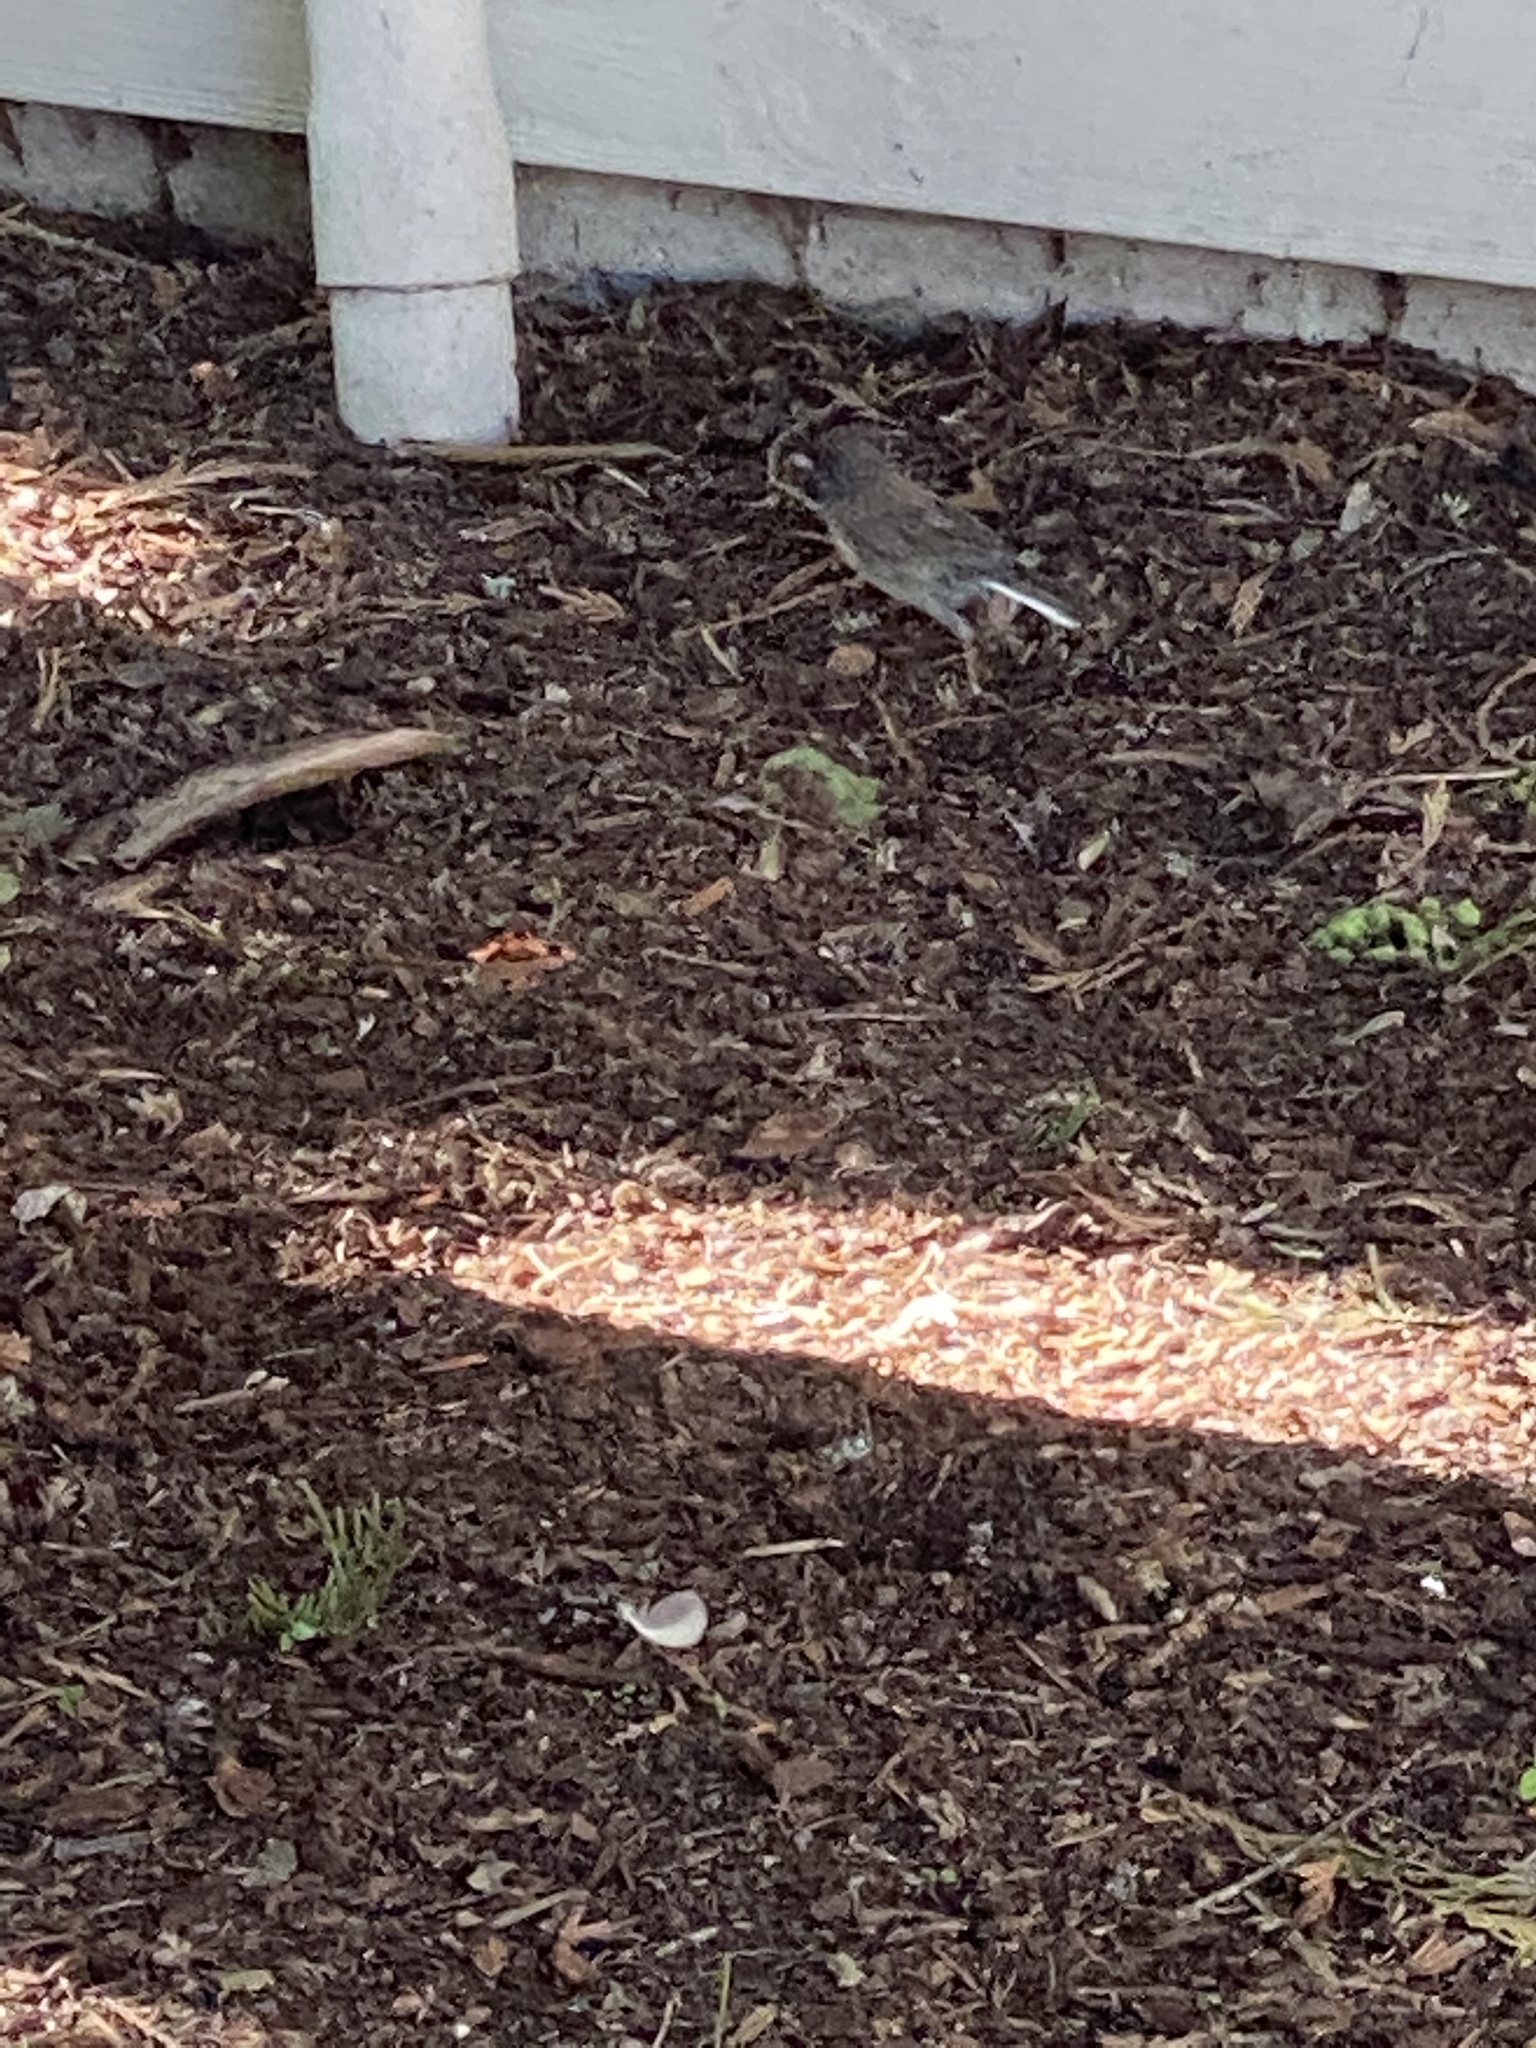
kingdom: Animalia
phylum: Chordata
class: Aves
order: Passeriformes
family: Passerellidae
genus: Junco
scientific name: Junco hyemalis
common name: Dark-eyed junco
